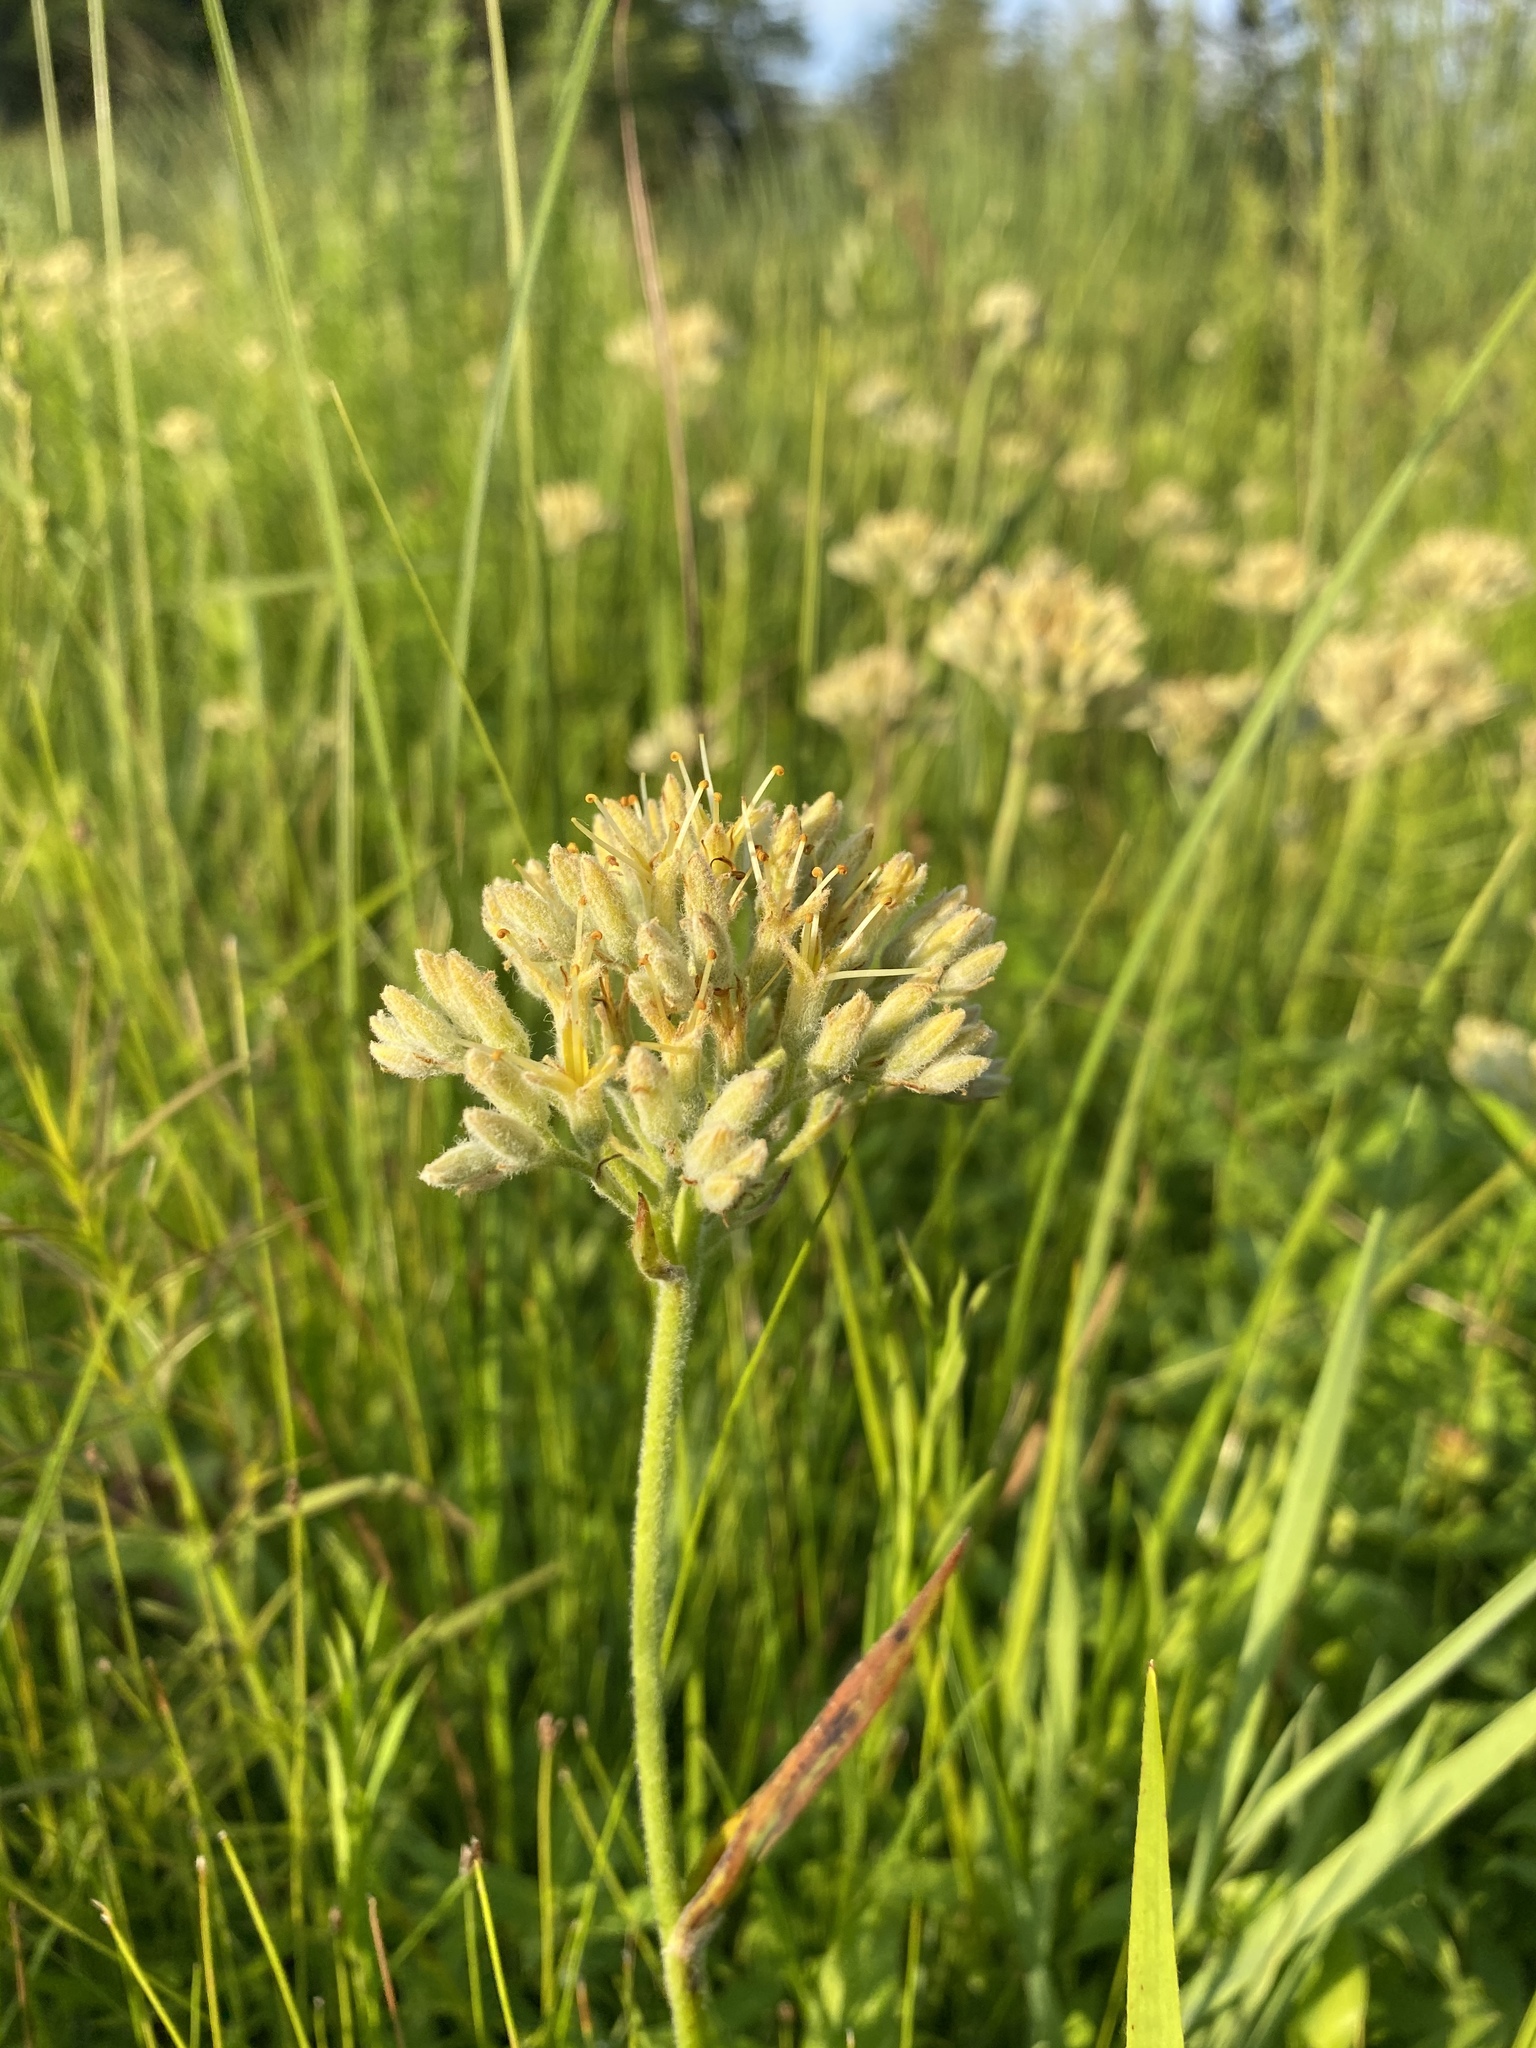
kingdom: Plantae
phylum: Tracheophyta
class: Liliopsida
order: Commelinales
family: Haemodoraceae
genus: Lachnanthes
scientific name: Lachnanthes caroliana
